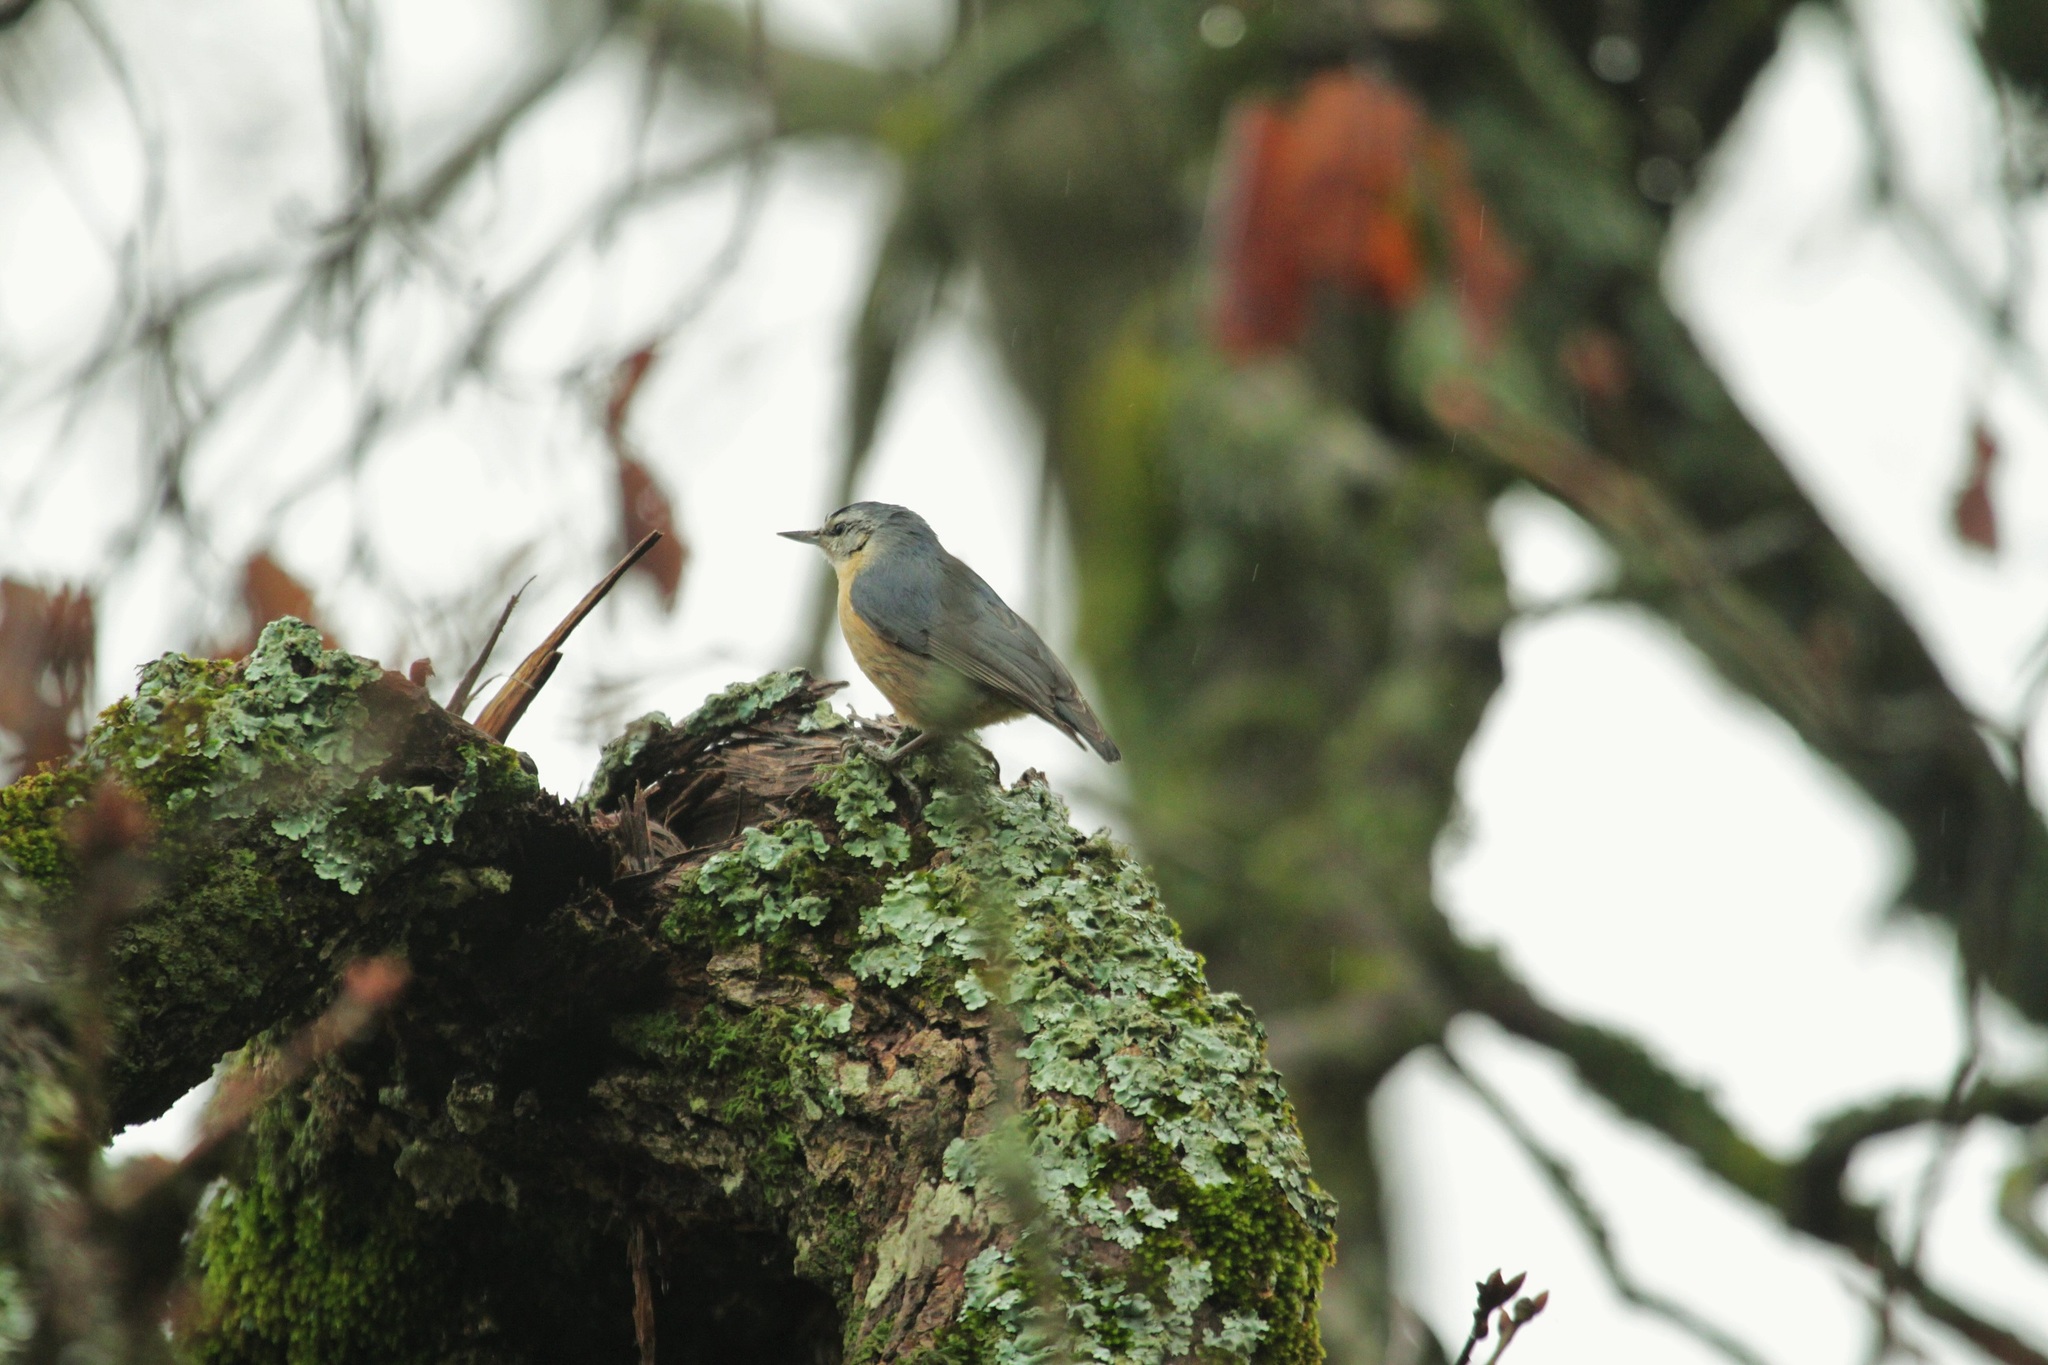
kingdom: Animalia
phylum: Chordata
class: Aves
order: Passeriformes
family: Sittidae
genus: Sitta
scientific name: Sitta ledanti
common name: Algerian nuthatch
